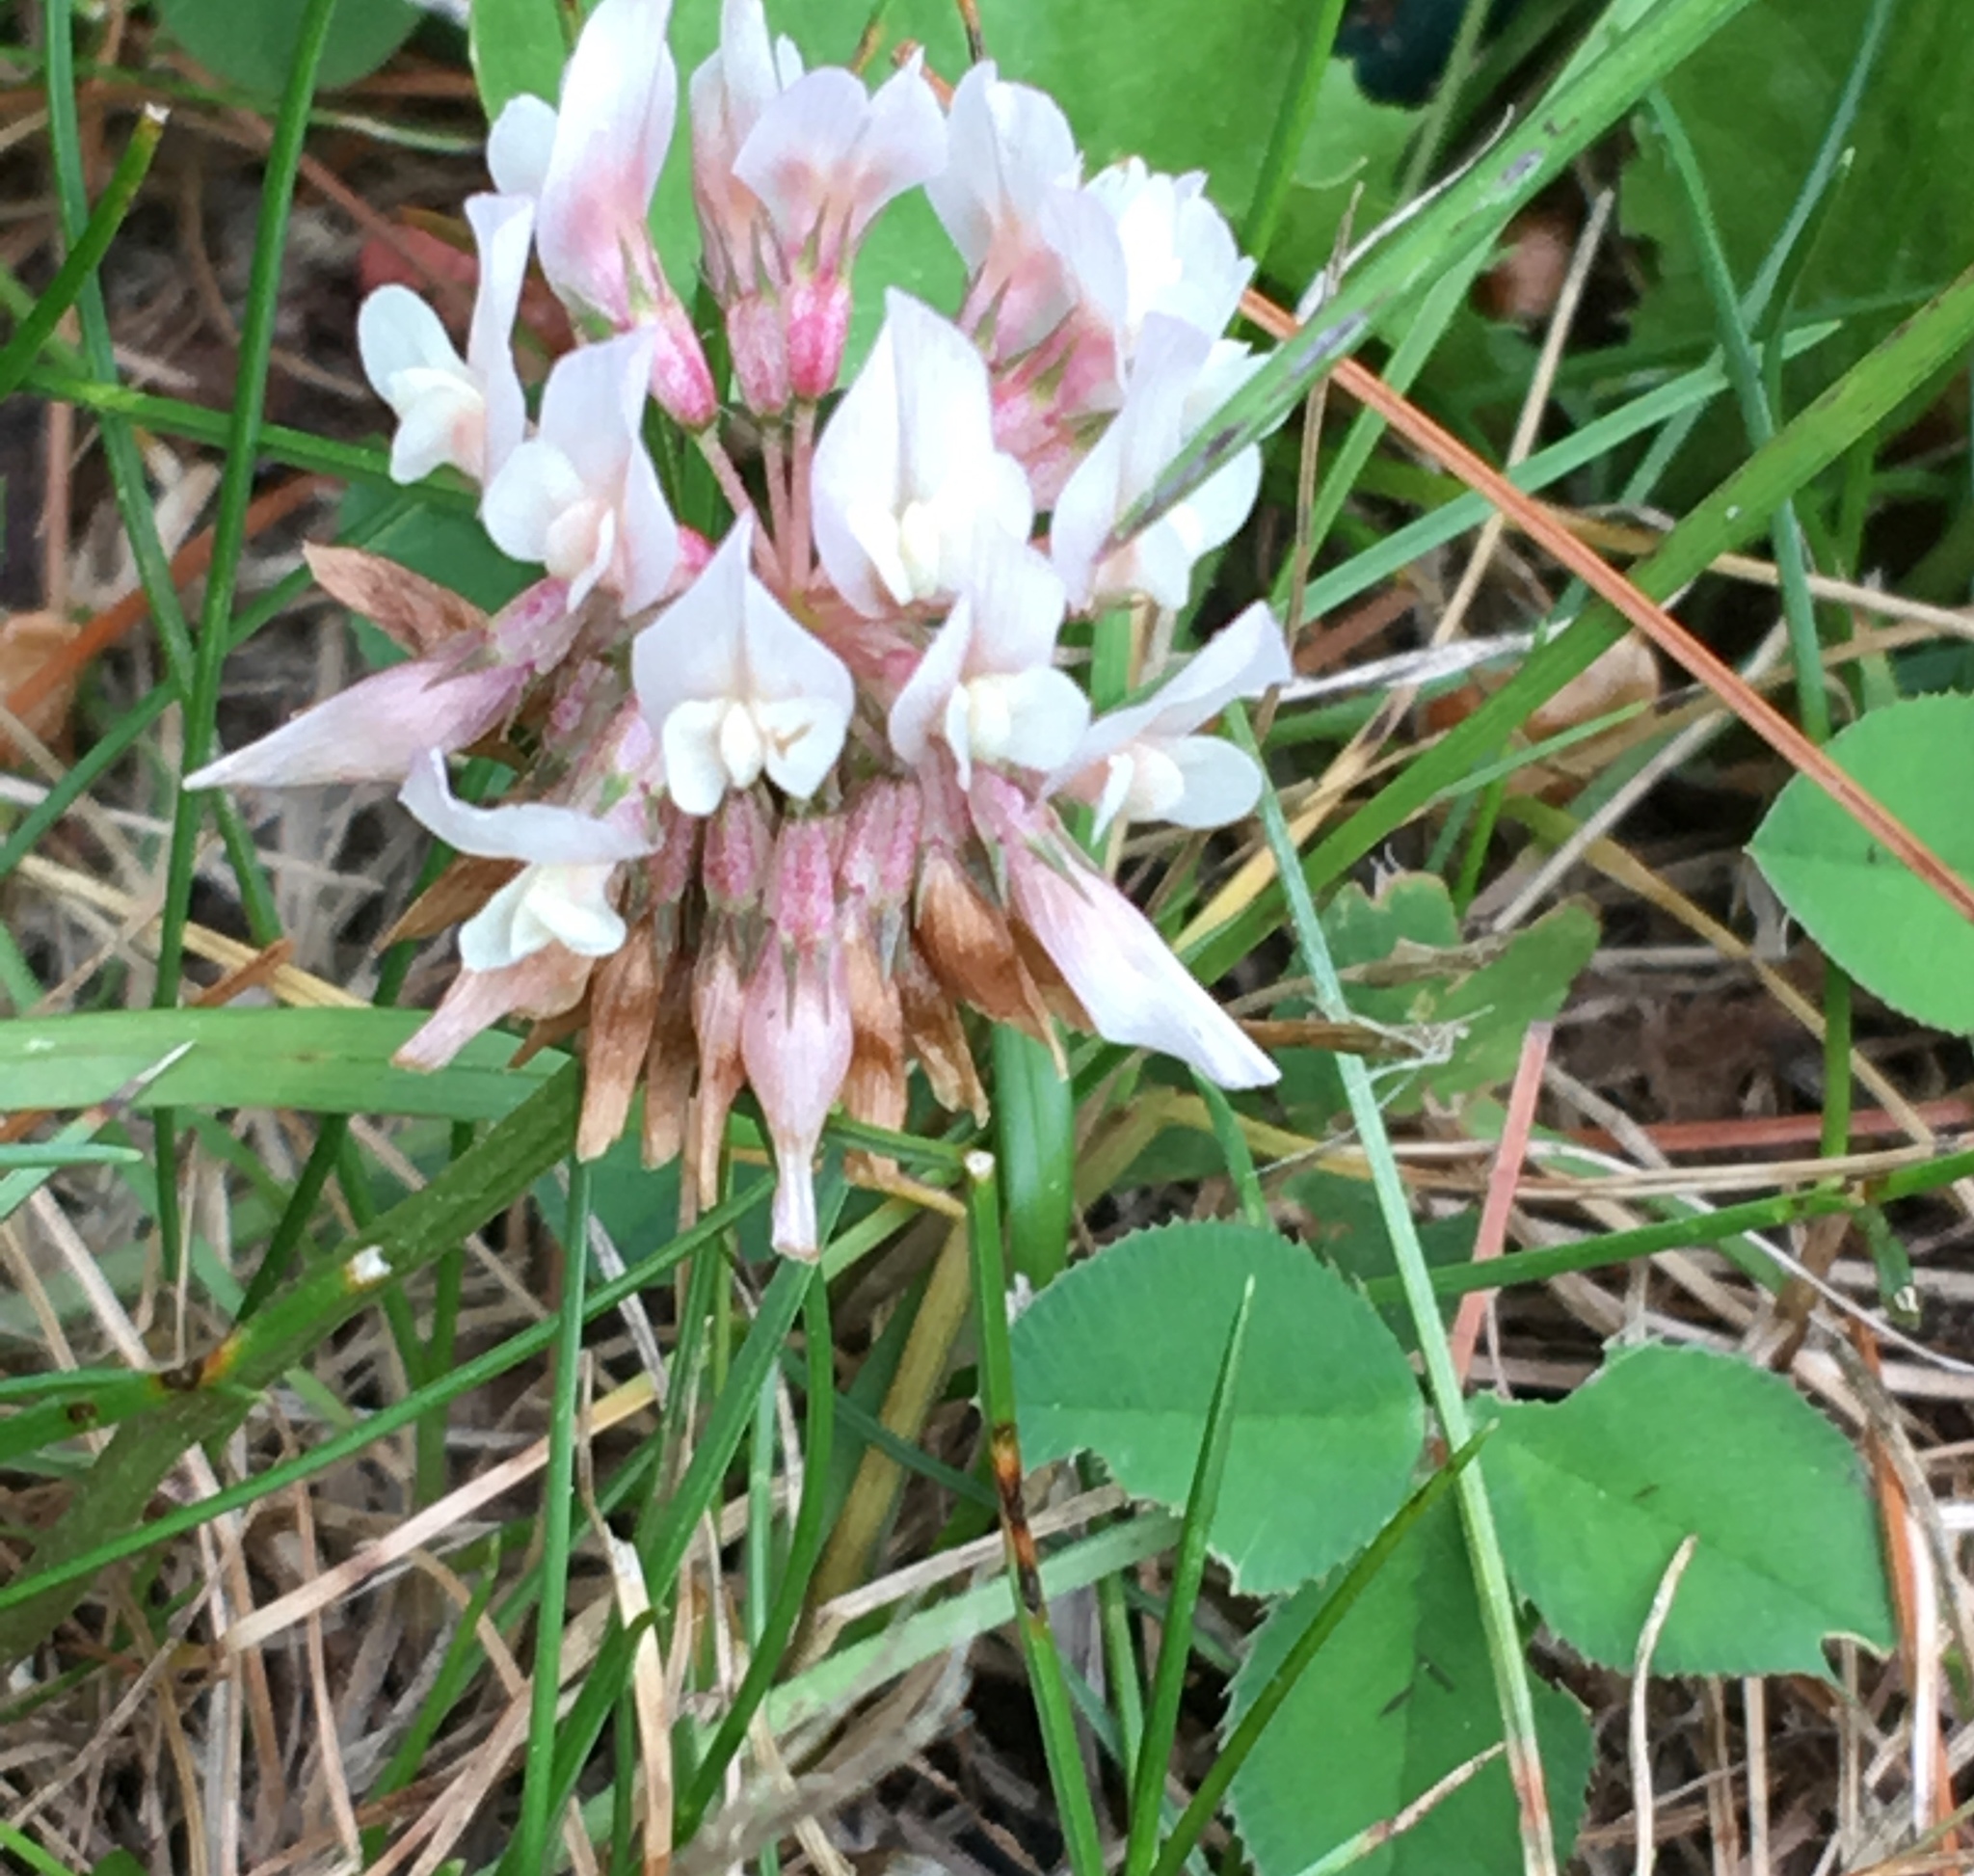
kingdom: Plantae
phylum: Tracheophyta
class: Magnoliopsida
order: Fabales
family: Fabaceae
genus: Trifolium
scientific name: Trifolium repens
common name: White clover
